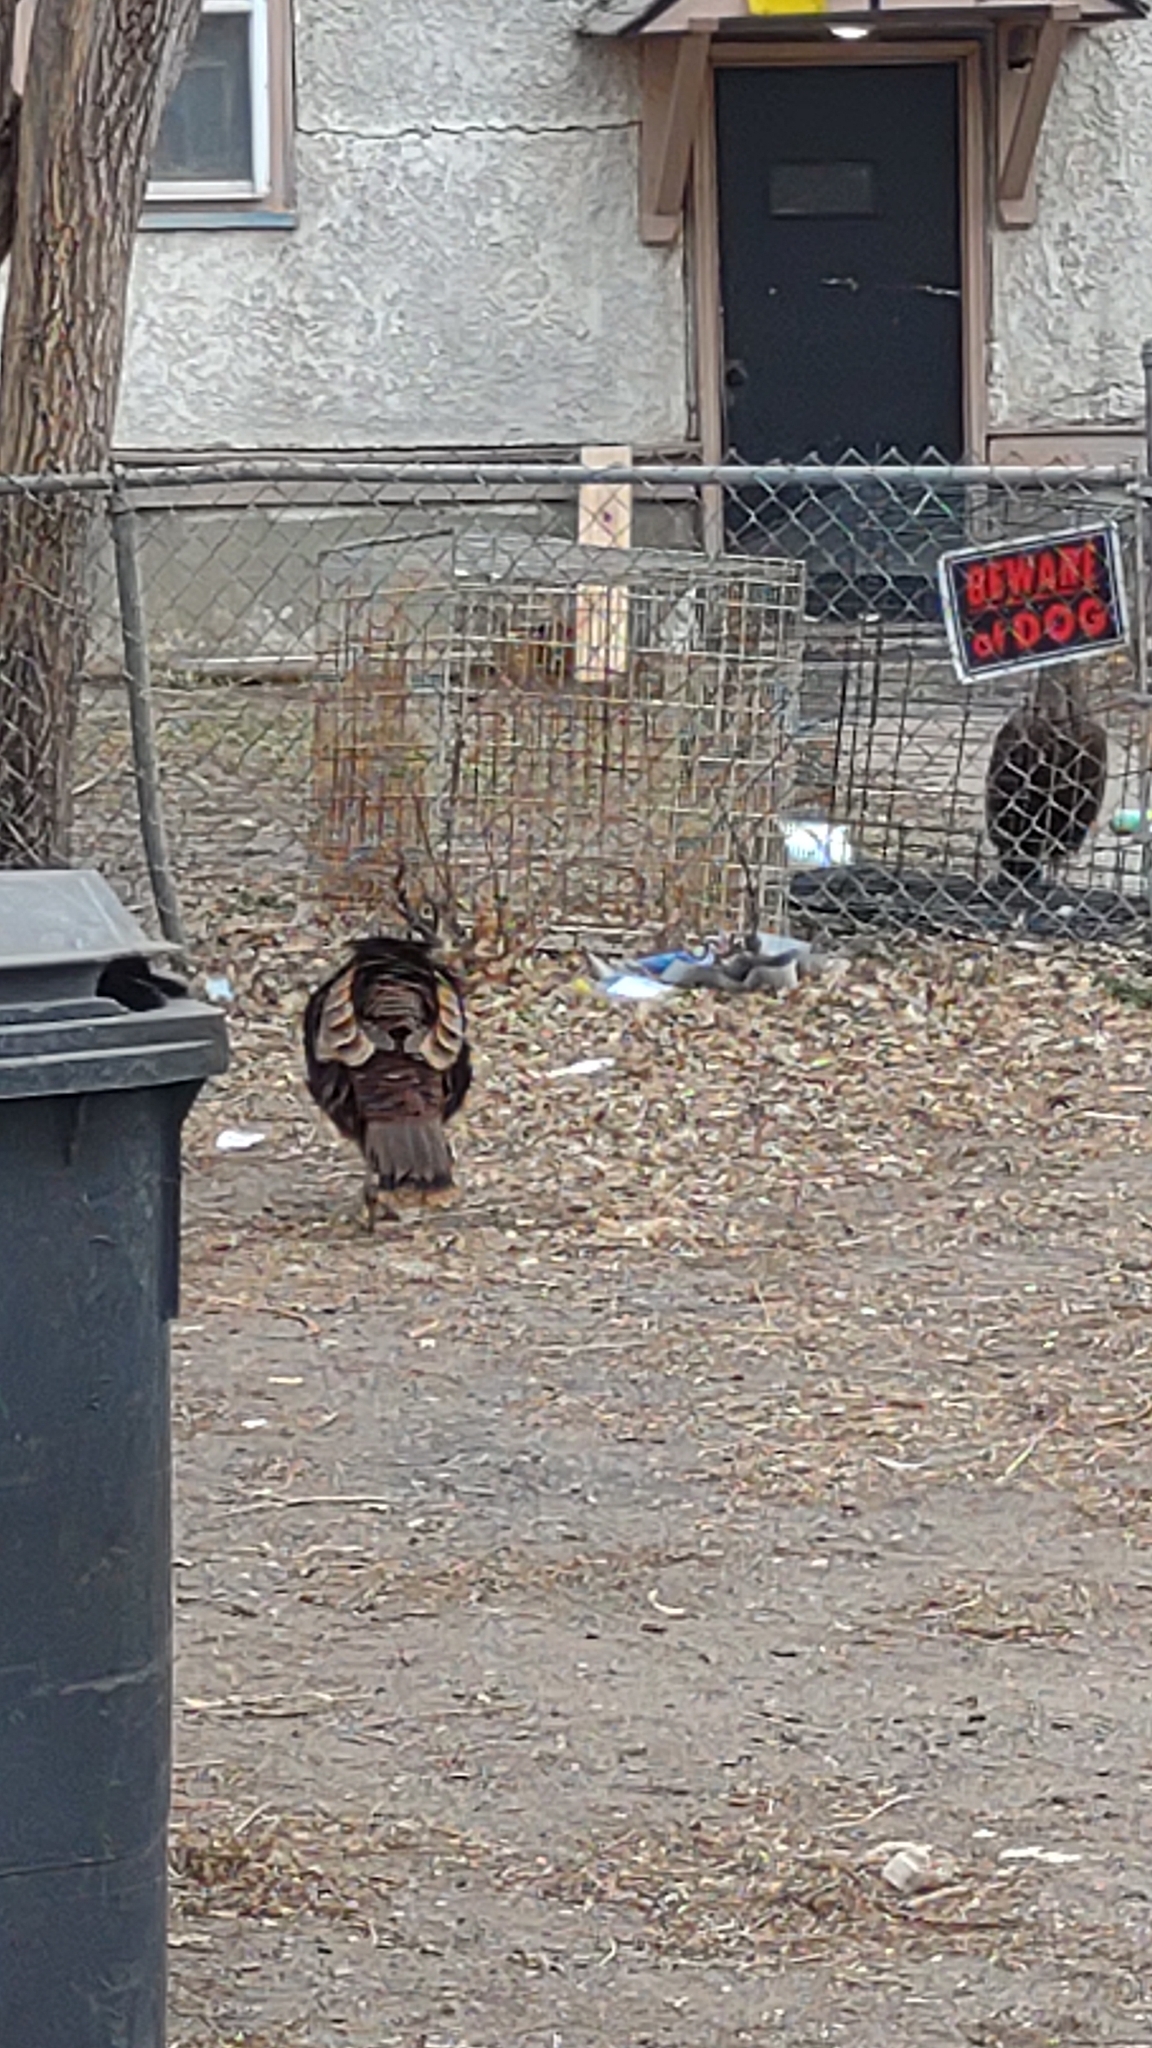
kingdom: Animalia
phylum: Chordata
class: Aves
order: Galliformes
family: Phasianidae
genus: Meleagris
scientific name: Meleagris gallopavo
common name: Wild turkey
